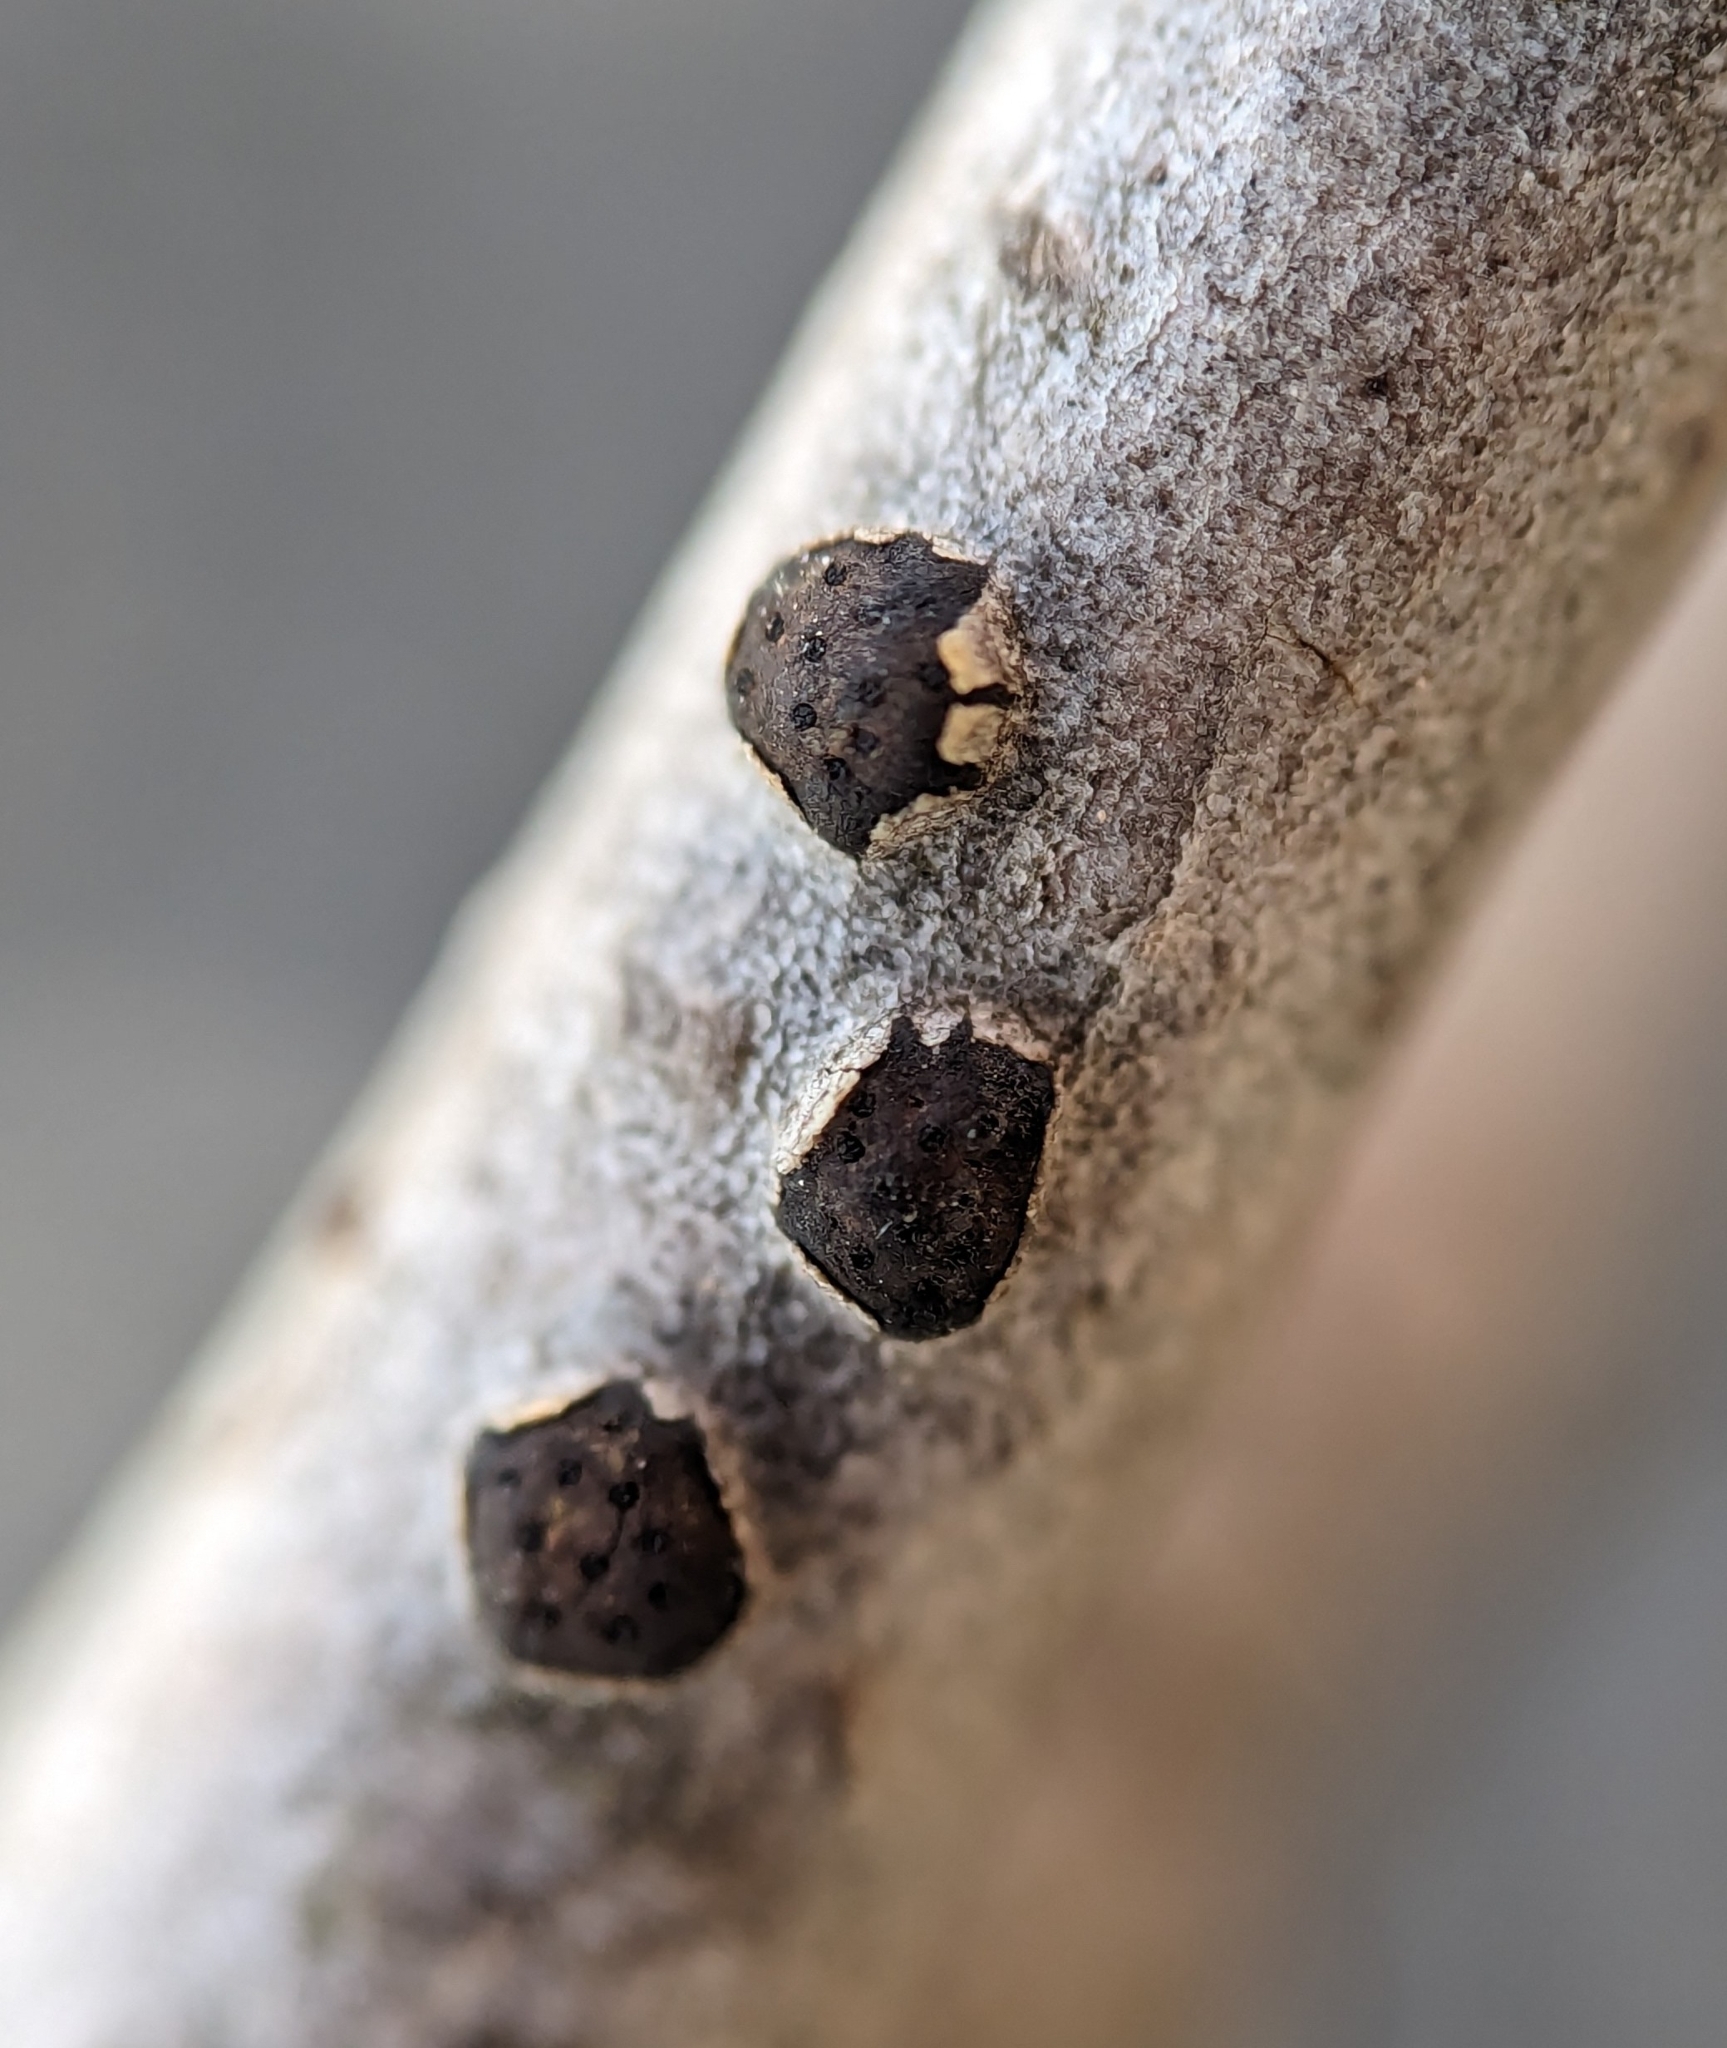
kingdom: Fungi
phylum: Ascomycota
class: Sordariomycetes
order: Xylariales
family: Diatrypaceae
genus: Diatrype
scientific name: Diatrype virescens
